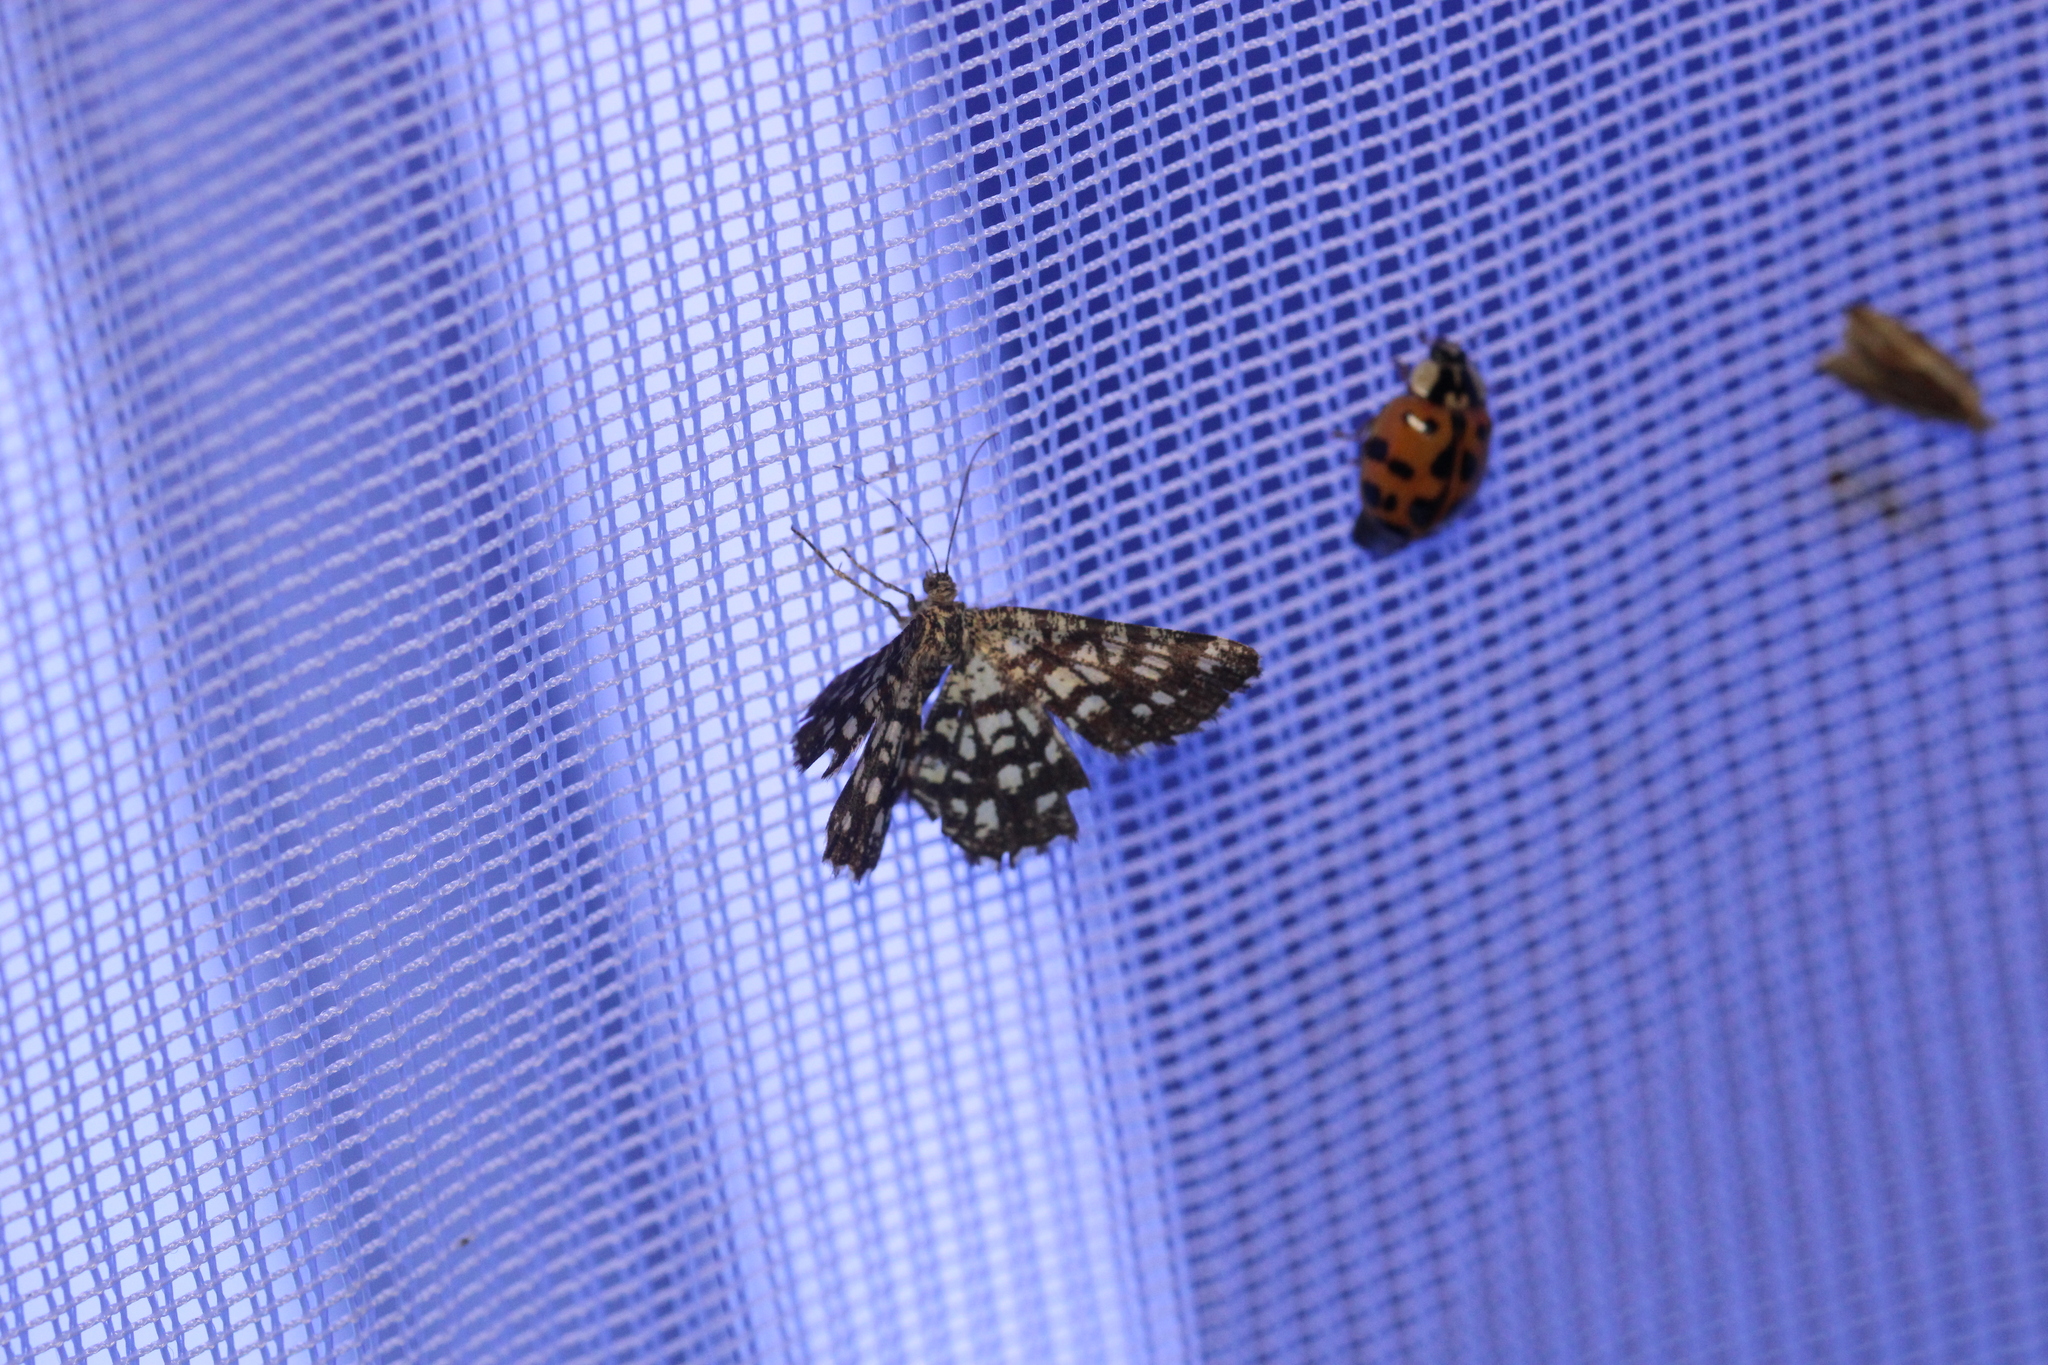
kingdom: Animalia
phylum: Arthropoda
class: Insecta
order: Lepidoptera
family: Geometridae
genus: Chiasmia
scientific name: Chiasmia clathrata
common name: Latticed heath
